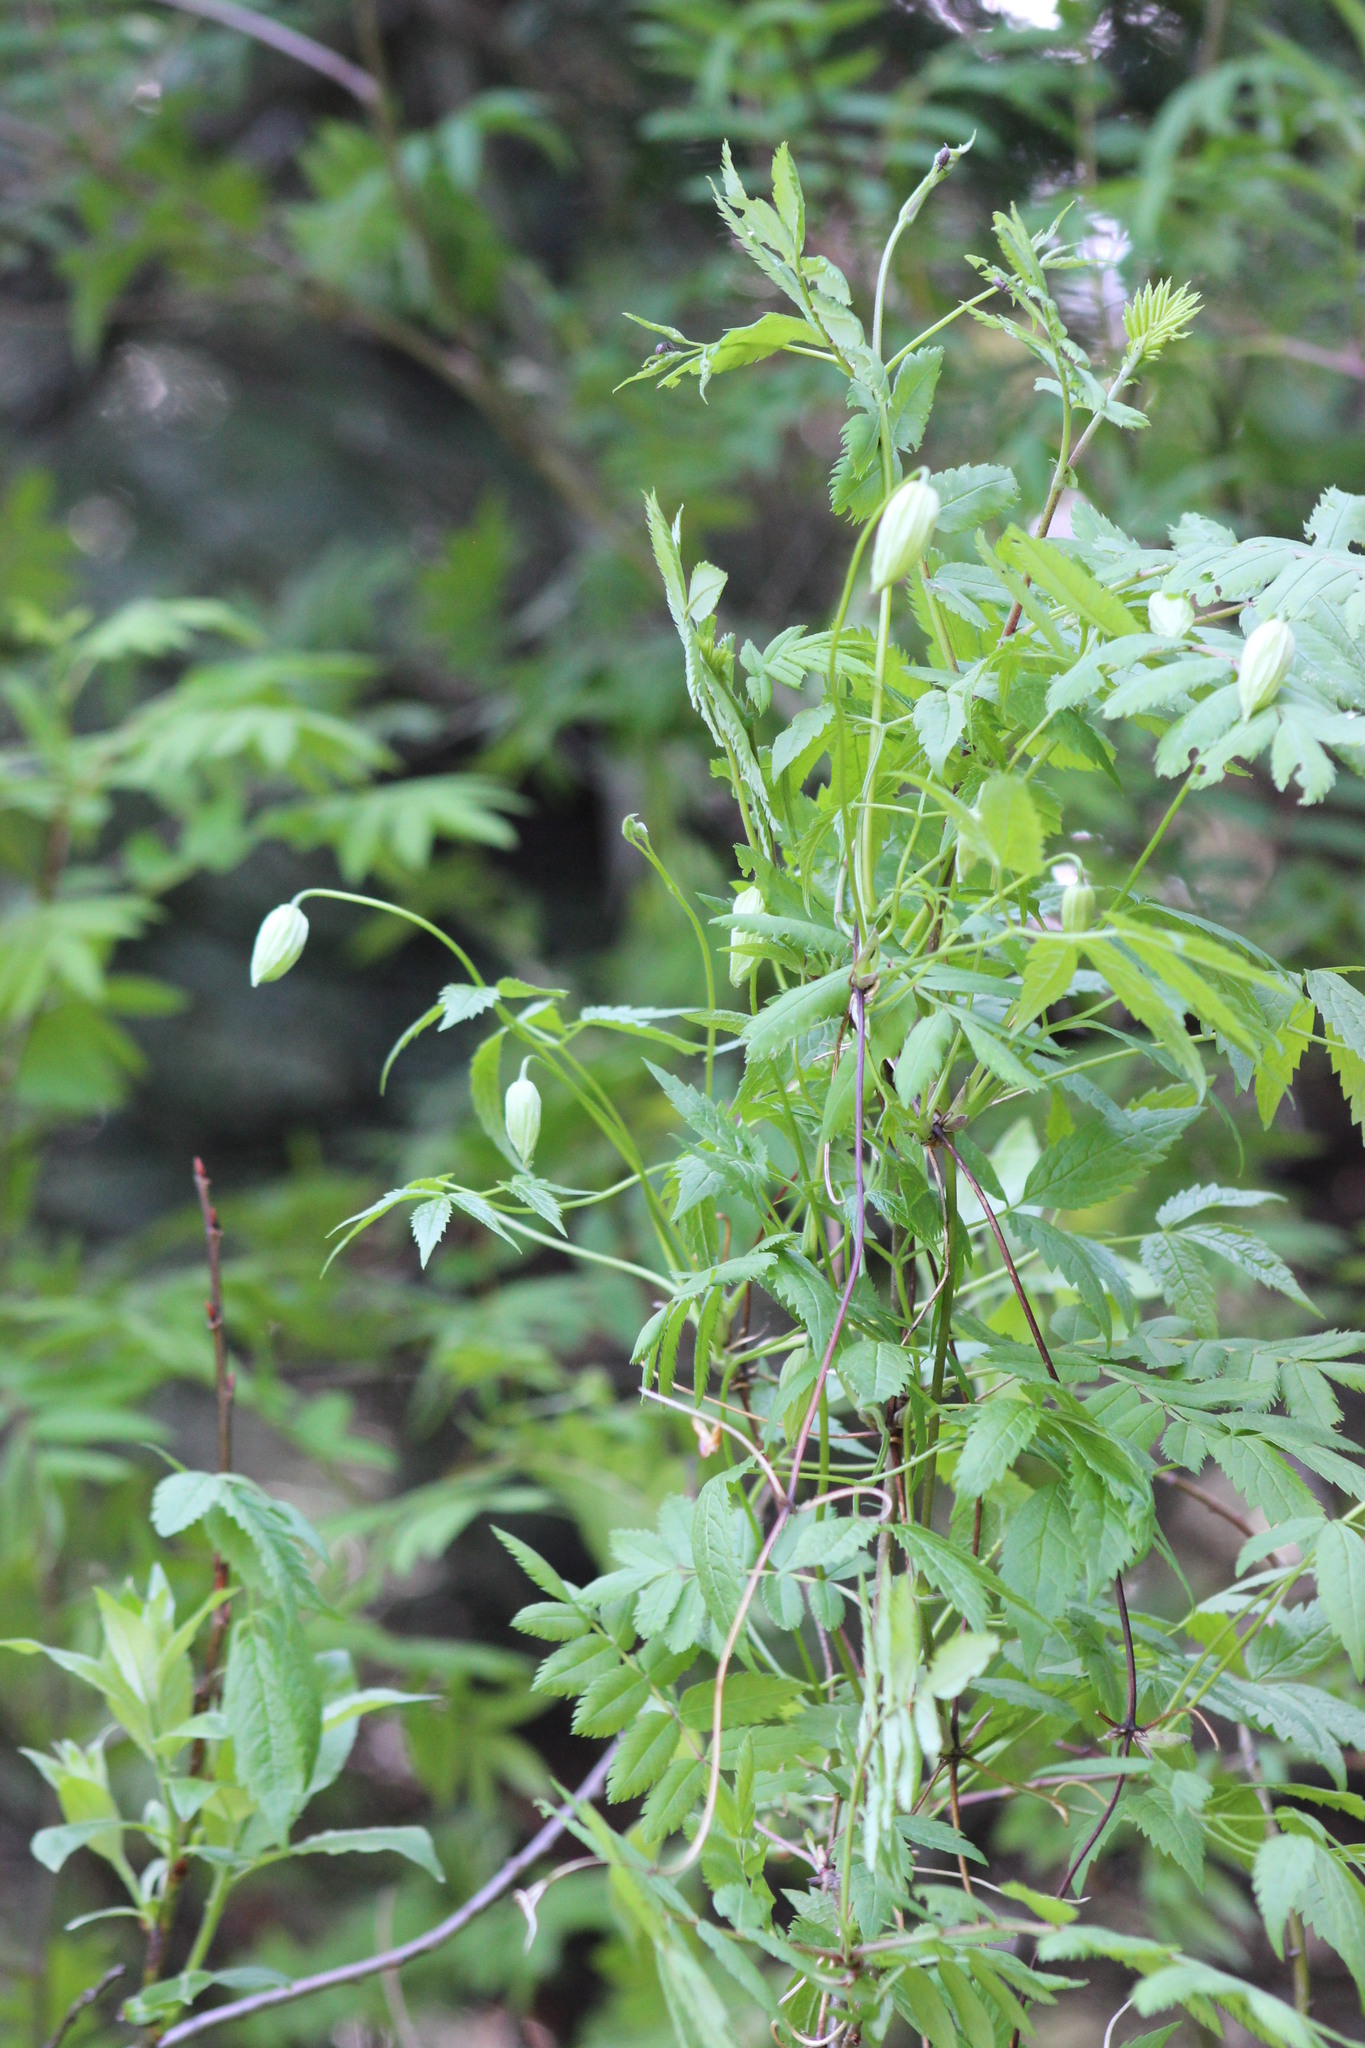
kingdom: Plantae
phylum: Tracheophyta
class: Magnoliopsida
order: Ranunculales
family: Ranunculaceae
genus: Clematis
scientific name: Clematis sibirica
